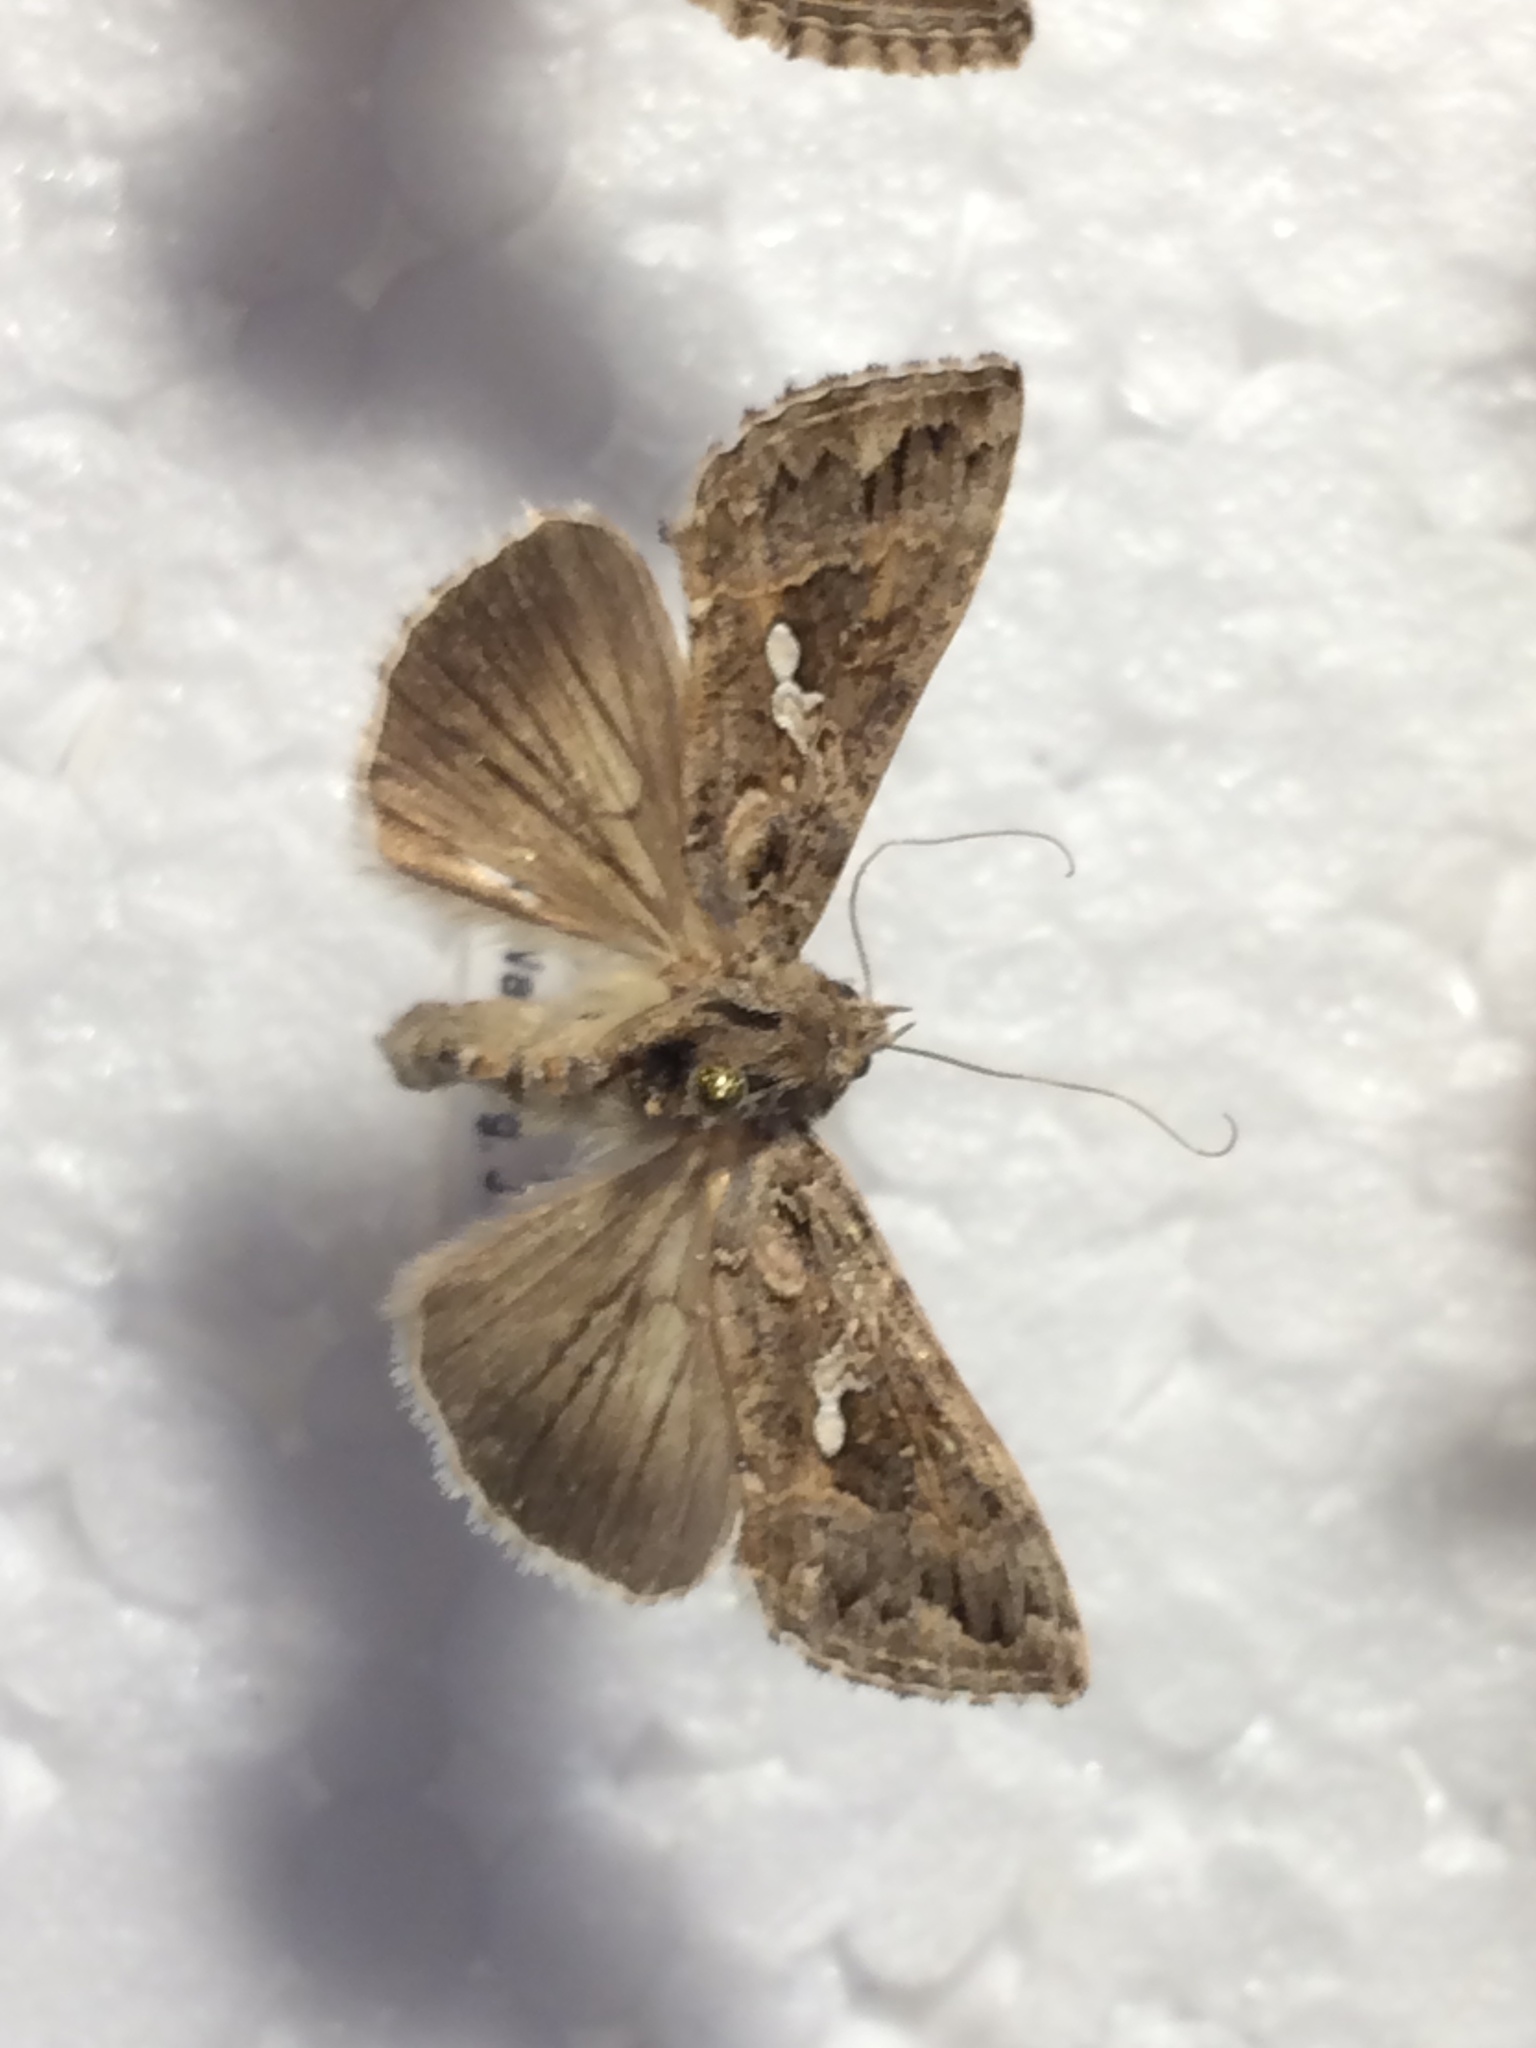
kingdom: Animalia
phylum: Arthropoda
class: Insecta
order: Lepidoptera
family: Noctuidae
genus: Trichoplusia
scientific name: Trichoplusia ni
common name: Ni moth
